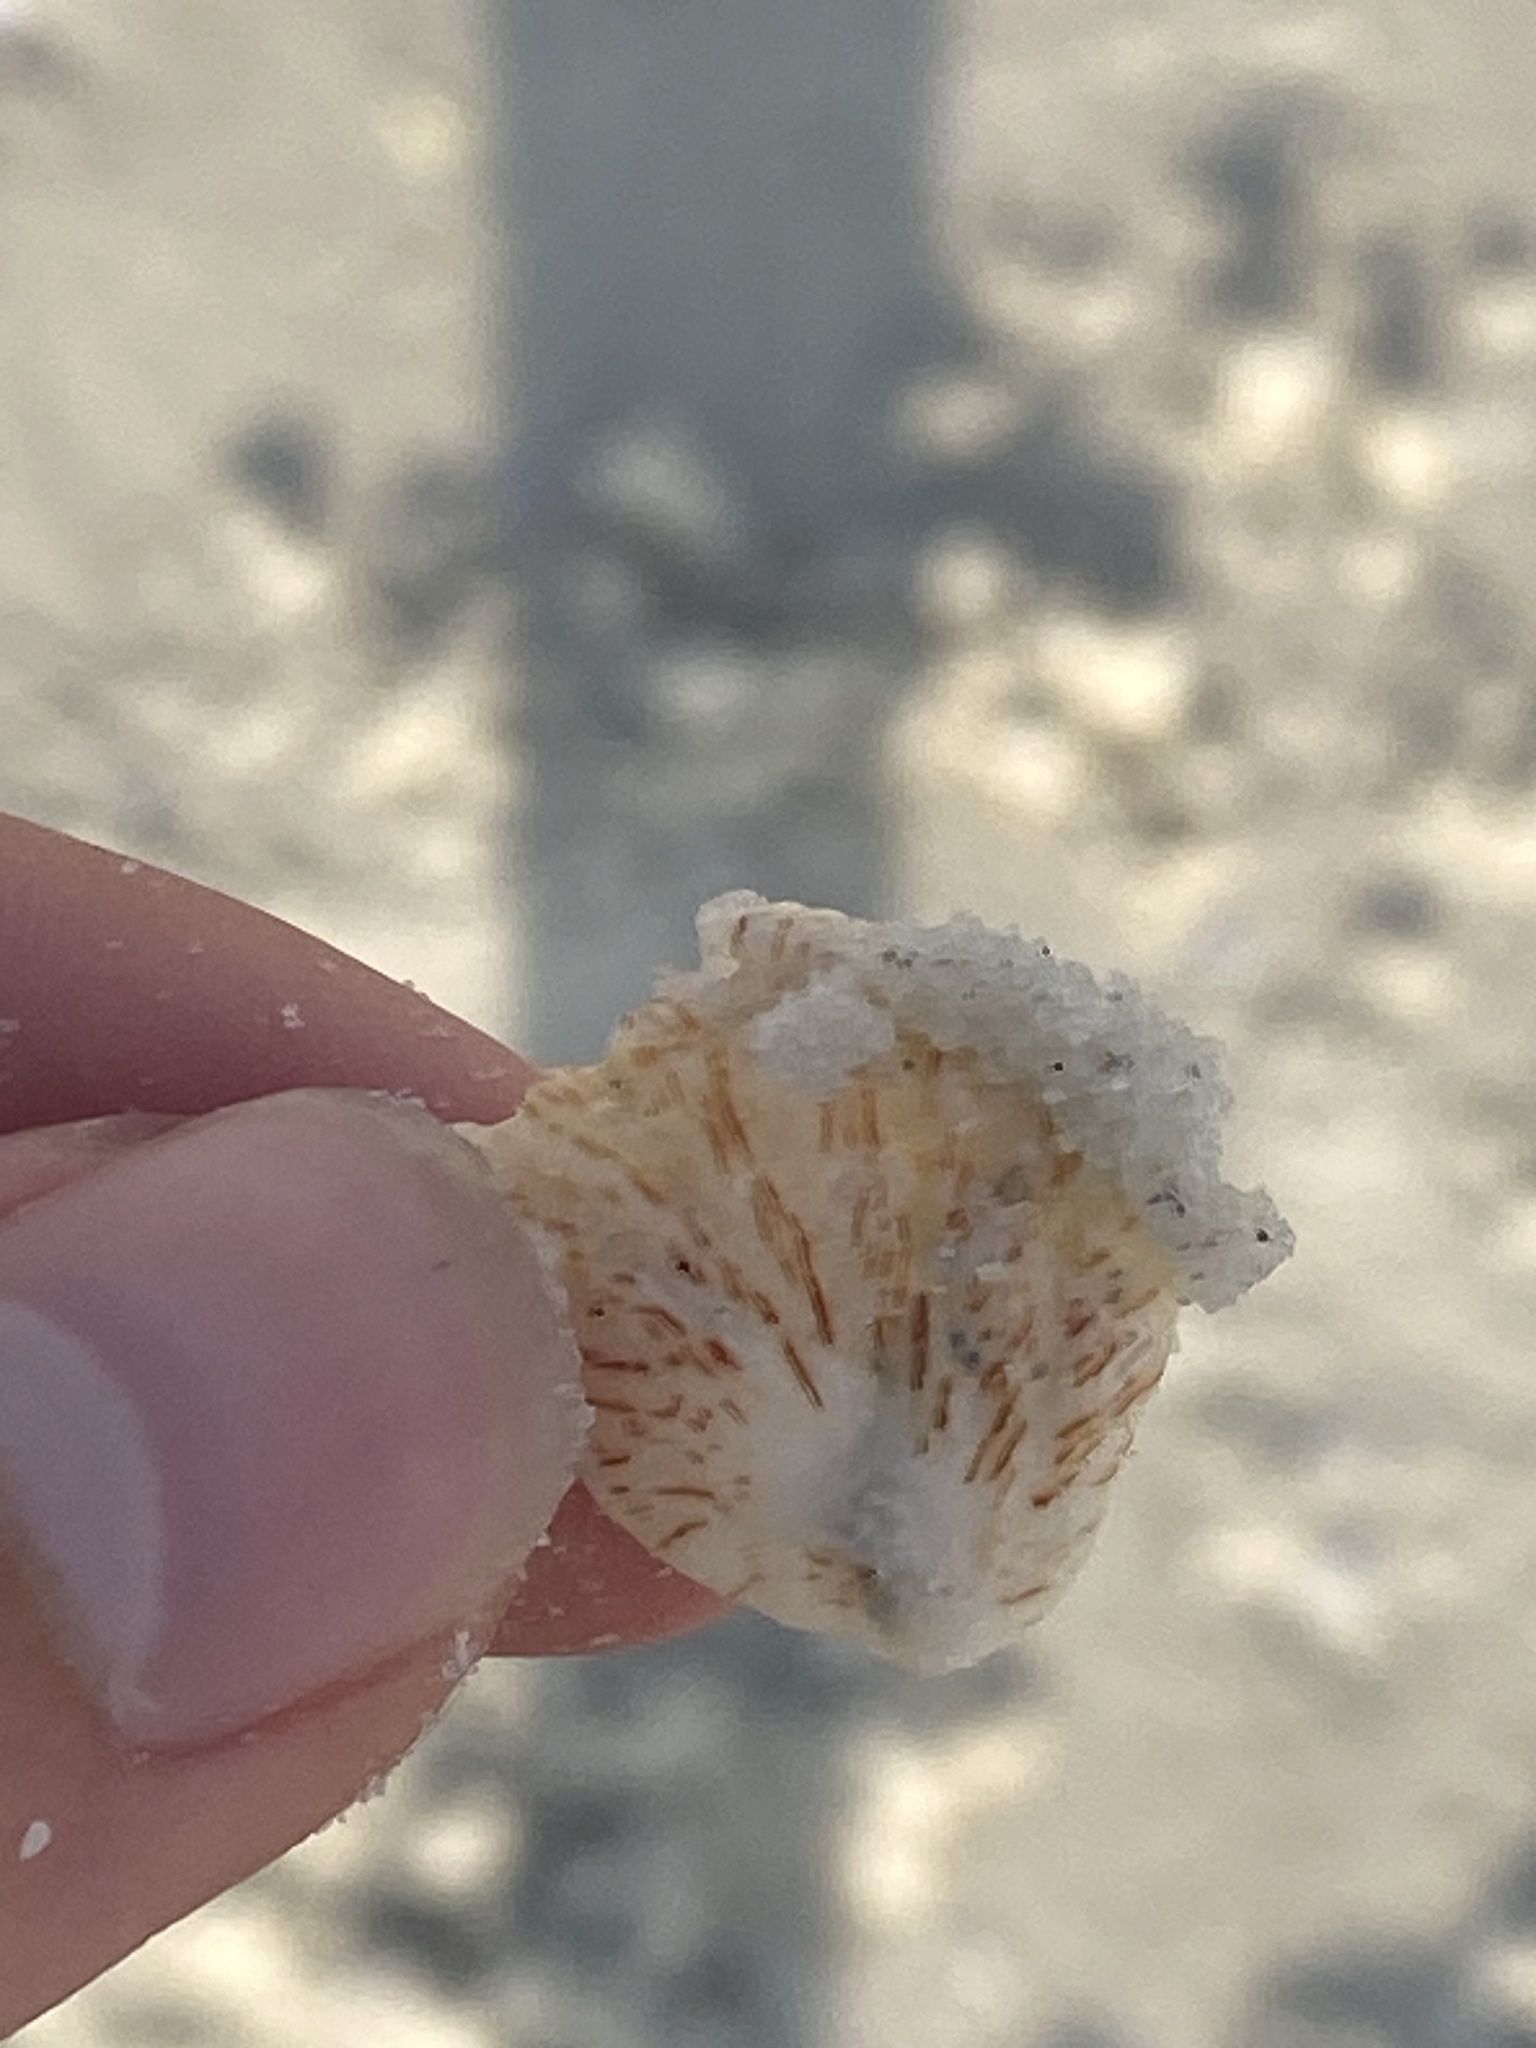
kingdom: Animalia
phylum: Mollusca
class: Bivalvia
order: Pectinida
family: Plicatulidae
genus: Plicatula
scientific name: Plicatula gibbosa
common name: Atlantic kitten's paw
